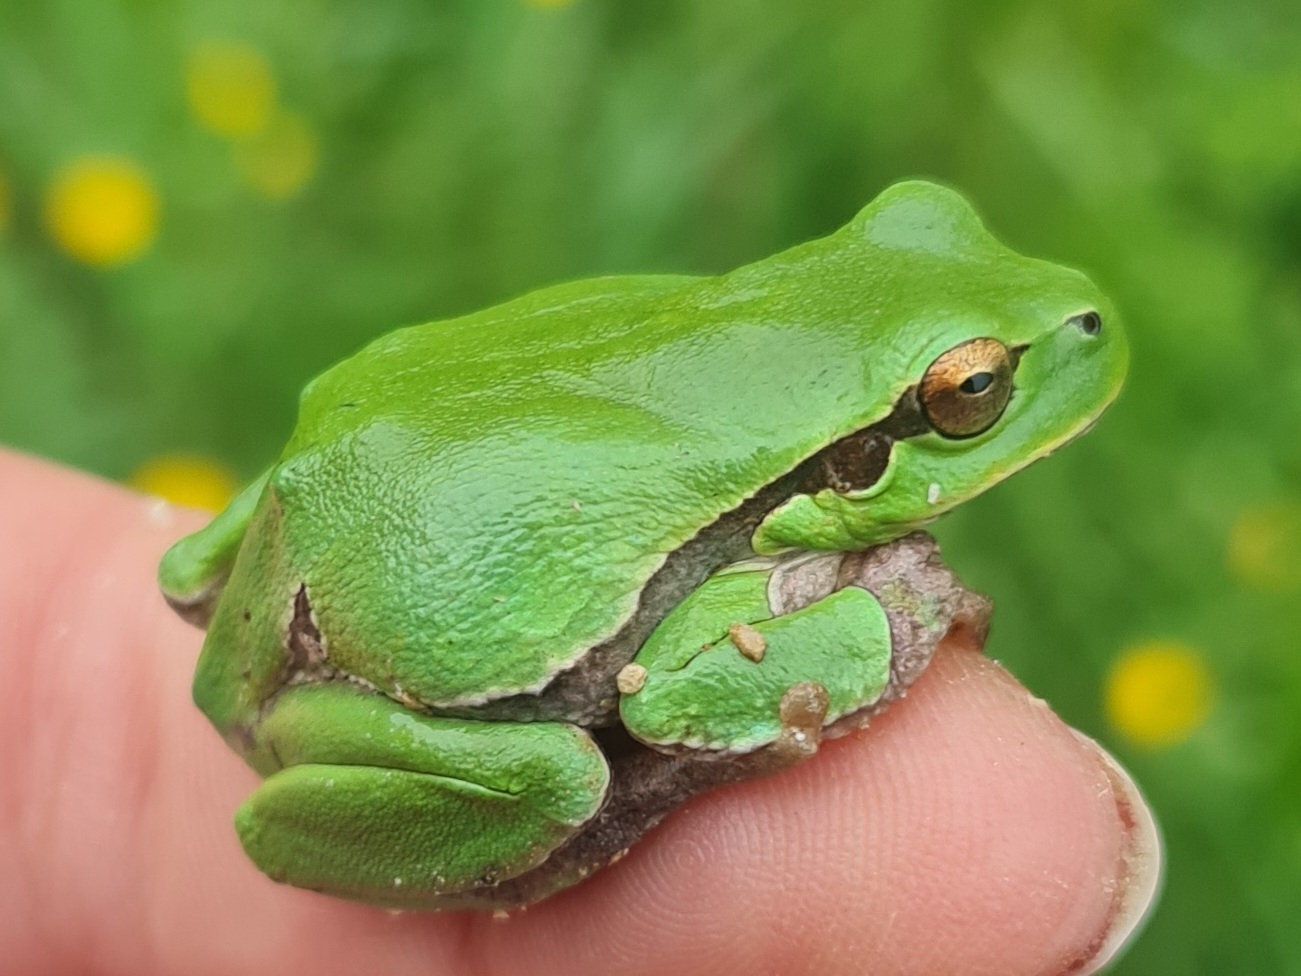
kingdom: Animalia
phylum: Chordata
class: Amphibia
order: Anura
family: Hylidae
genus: Hyla
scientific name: Hyla intermedia
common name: Italian tree frog
